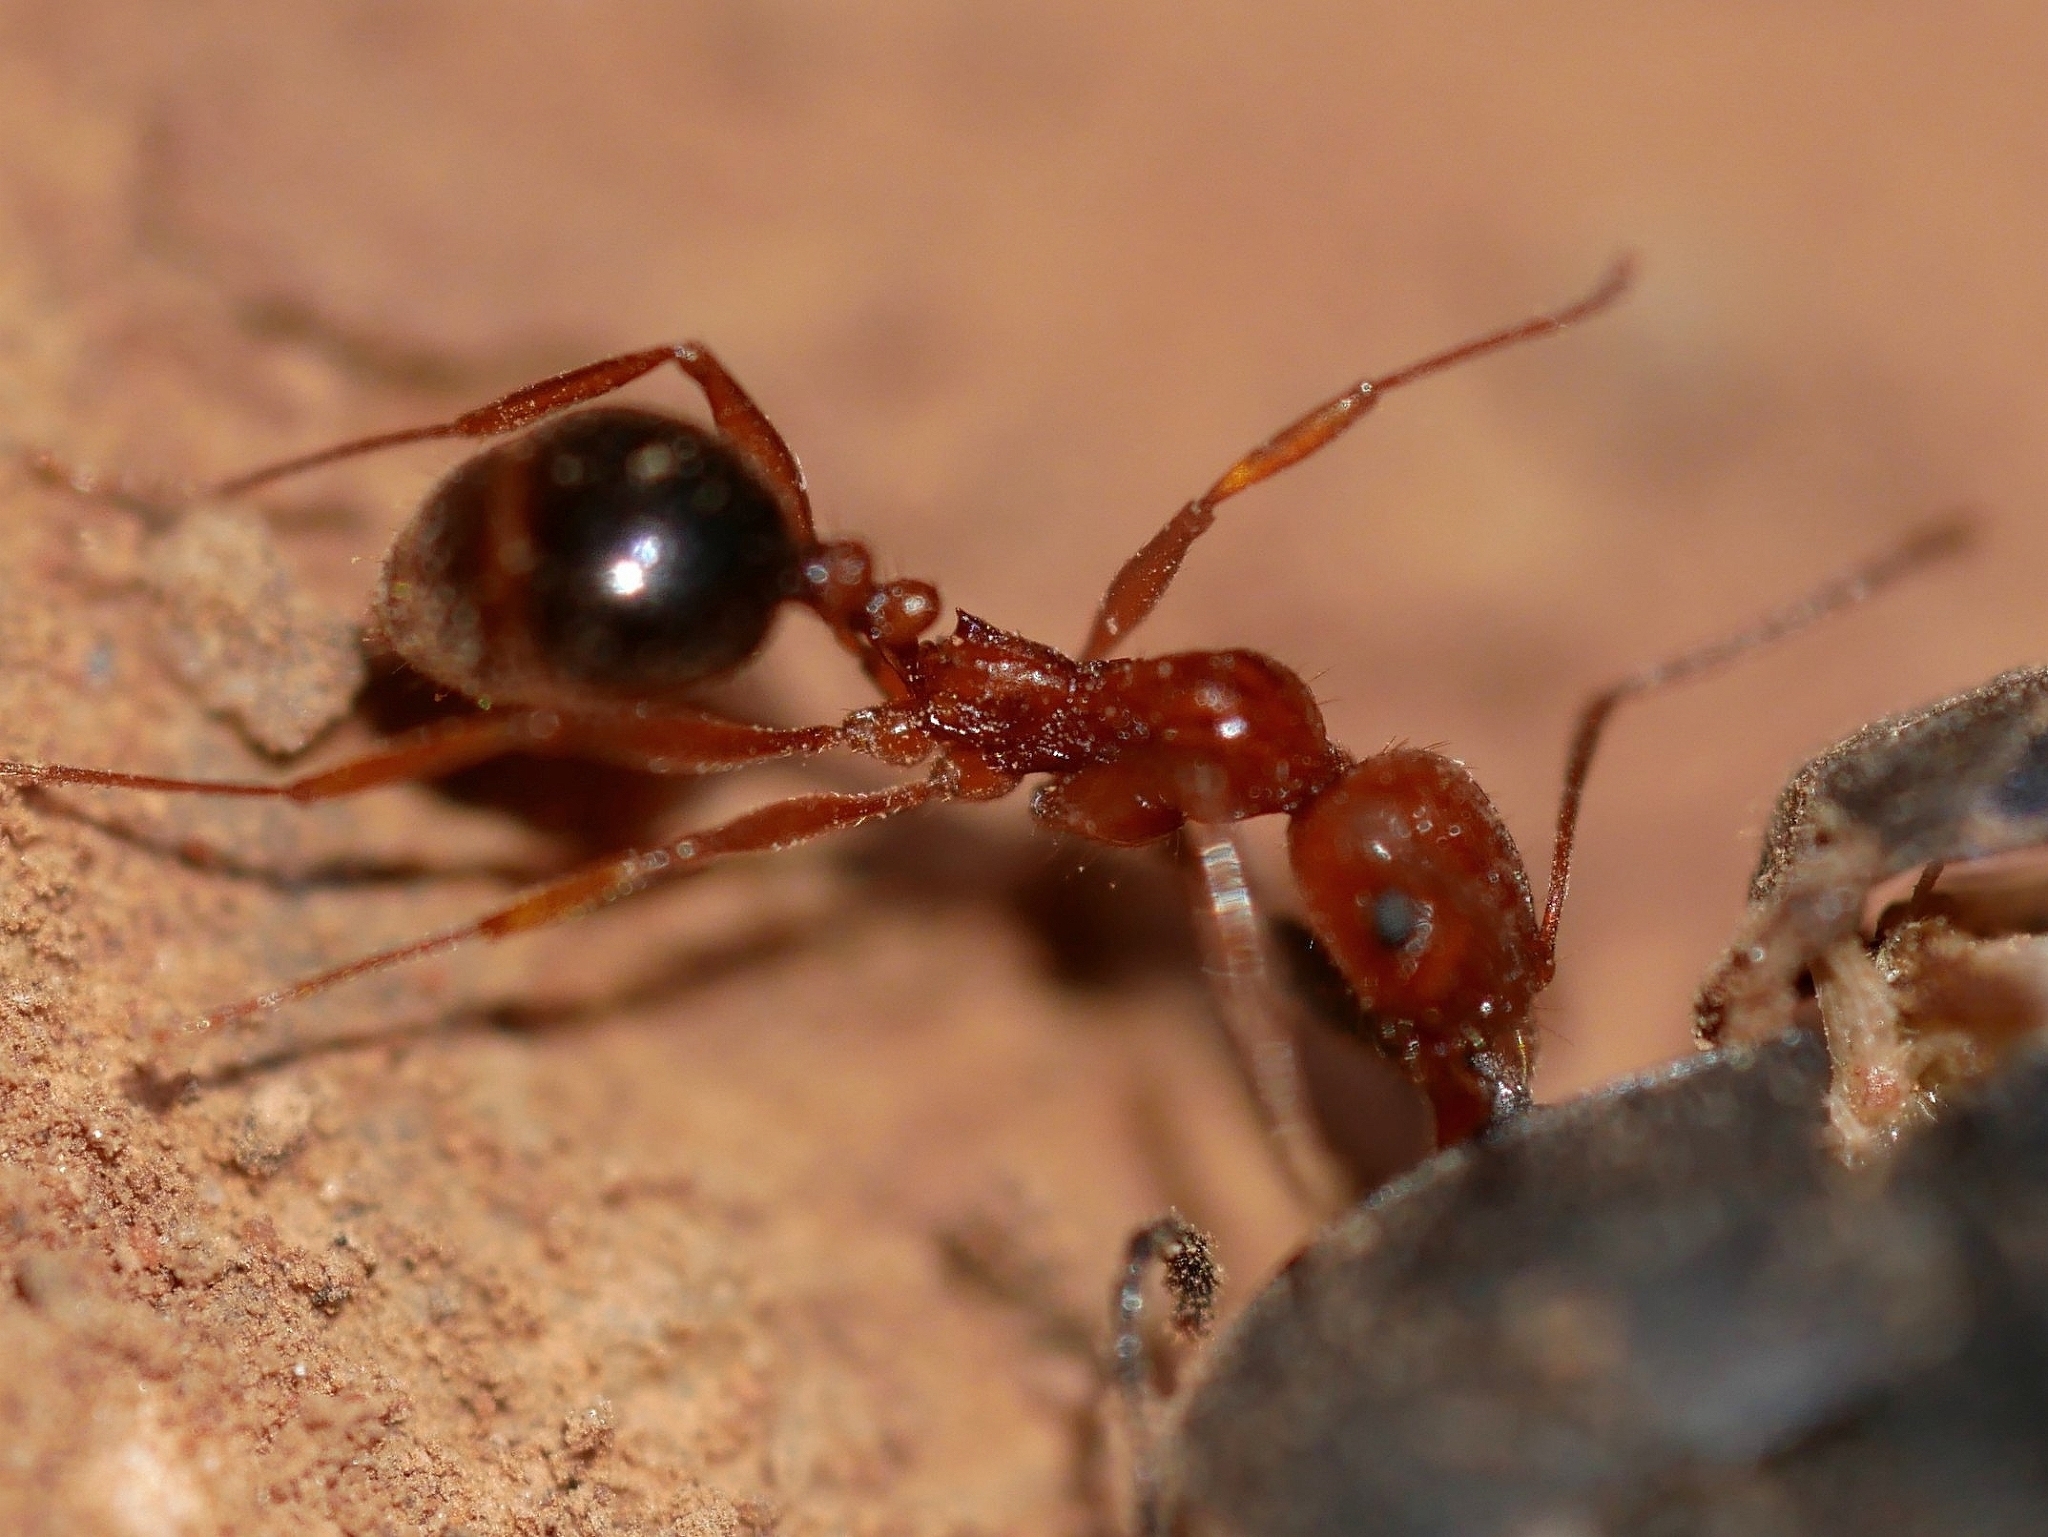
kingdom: Animalia
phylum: Arthropoda
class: Insecta
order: Hymenoptera
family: Formicidae
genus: Aphaenogaster
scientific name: Aphaenogaster uinta
